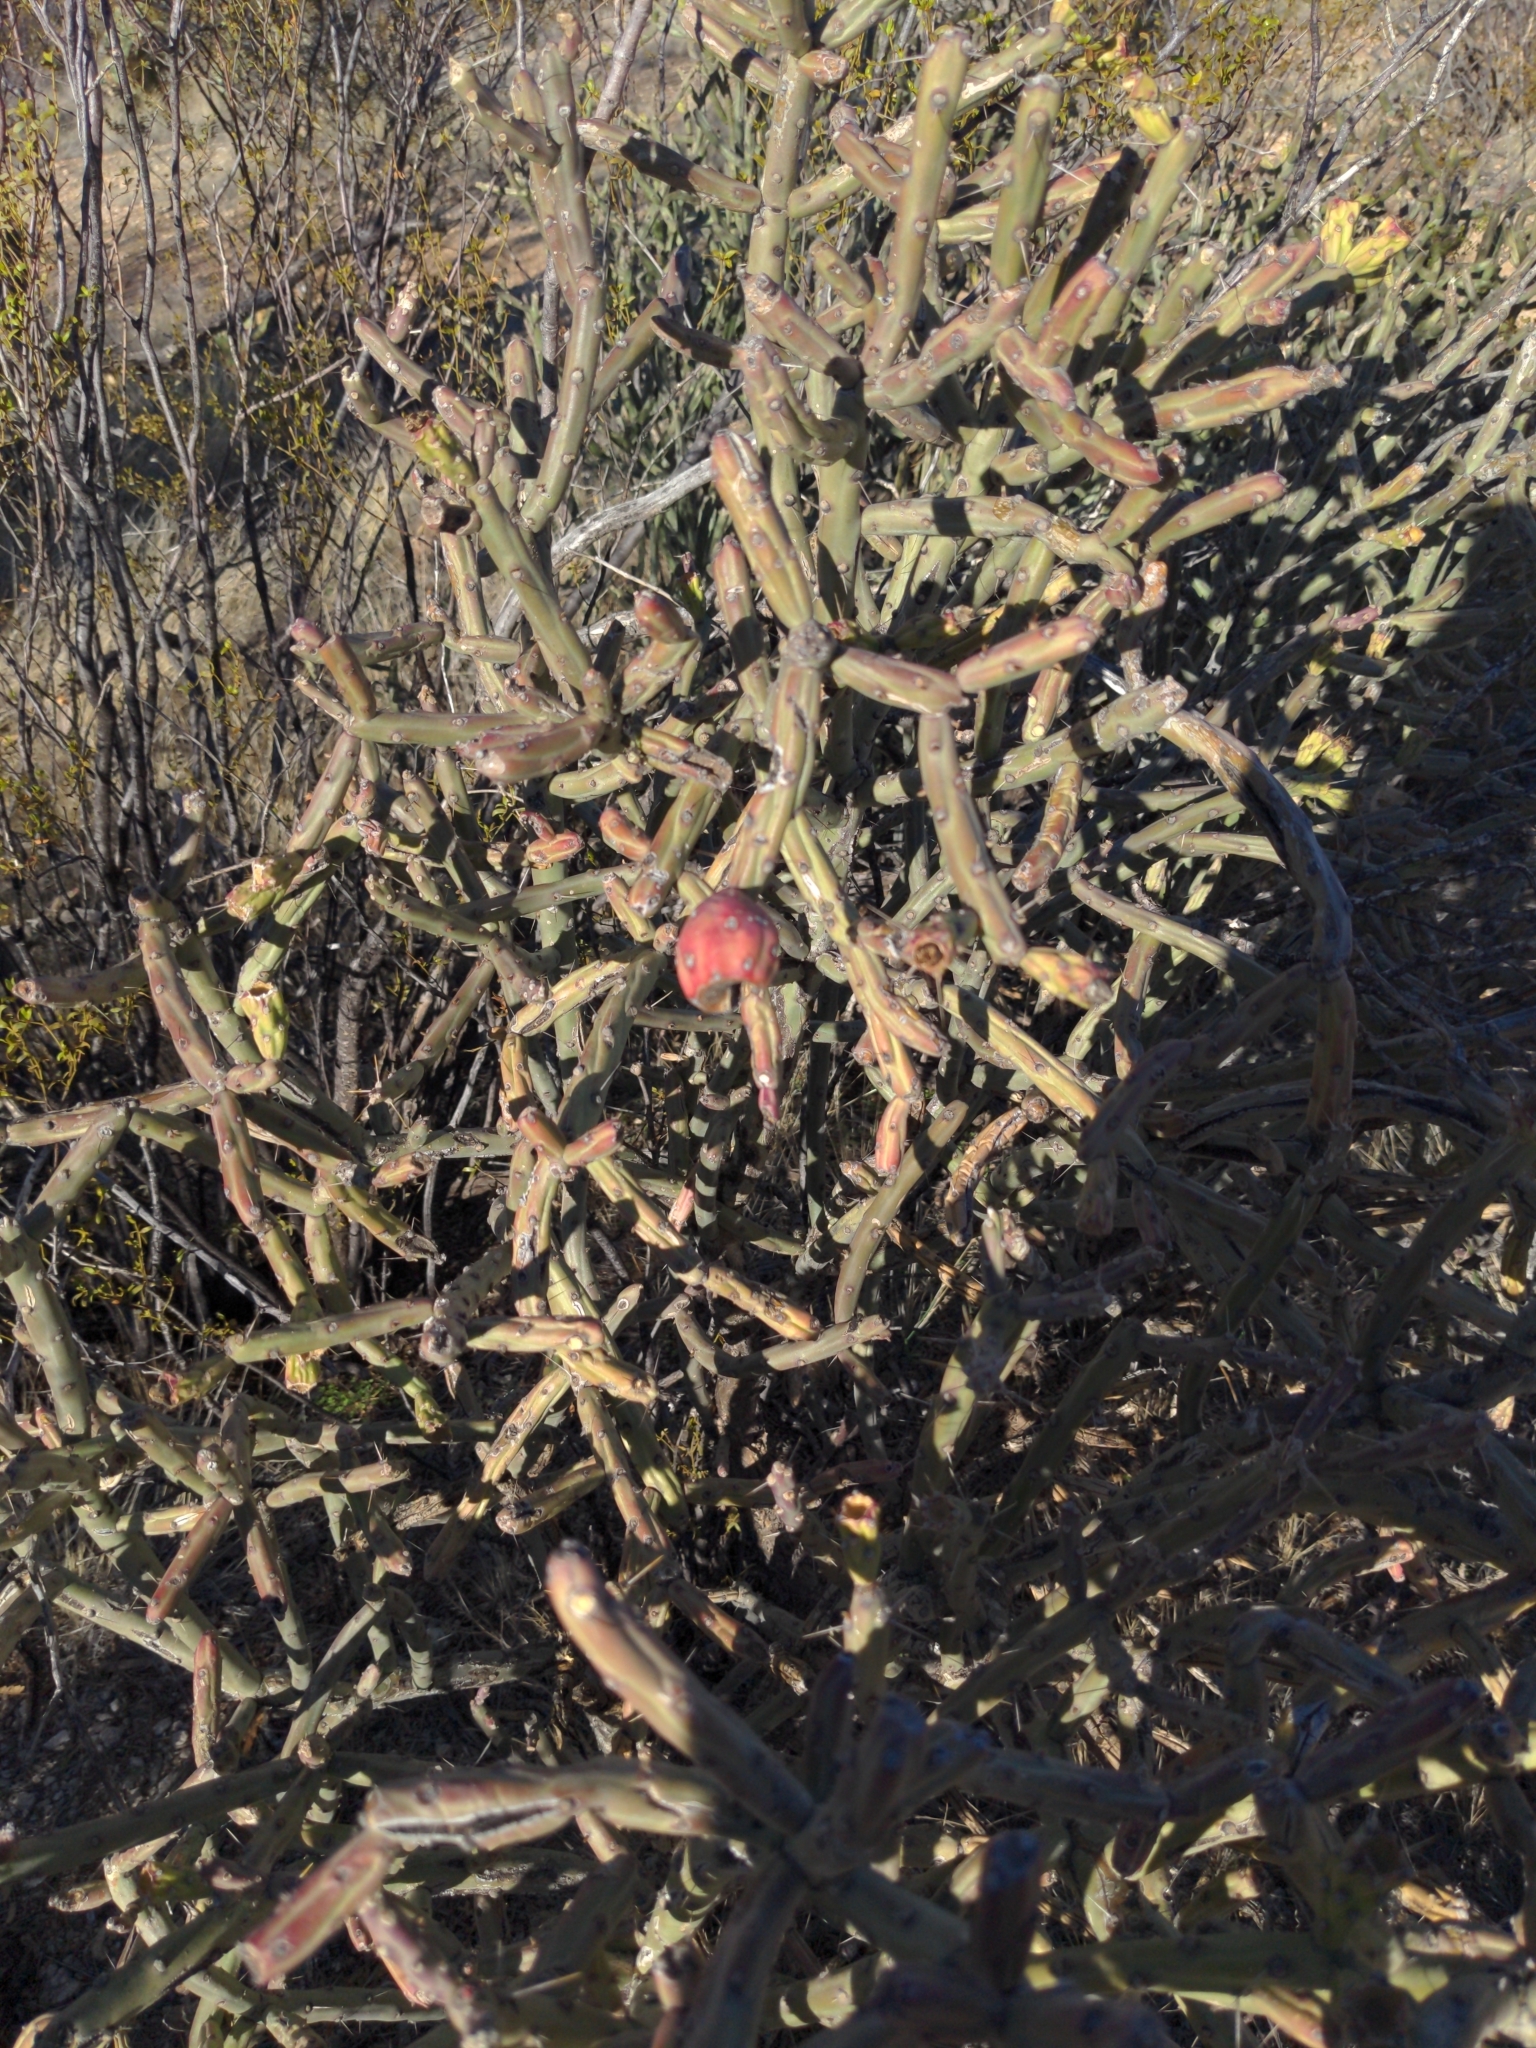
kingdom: Plantae
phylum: Tracheophyta
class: Magnoliopsida
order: Caryophyllales
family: Cactaceae
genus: Cylindropuntia
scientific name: Cylindropuntia arbuscula
